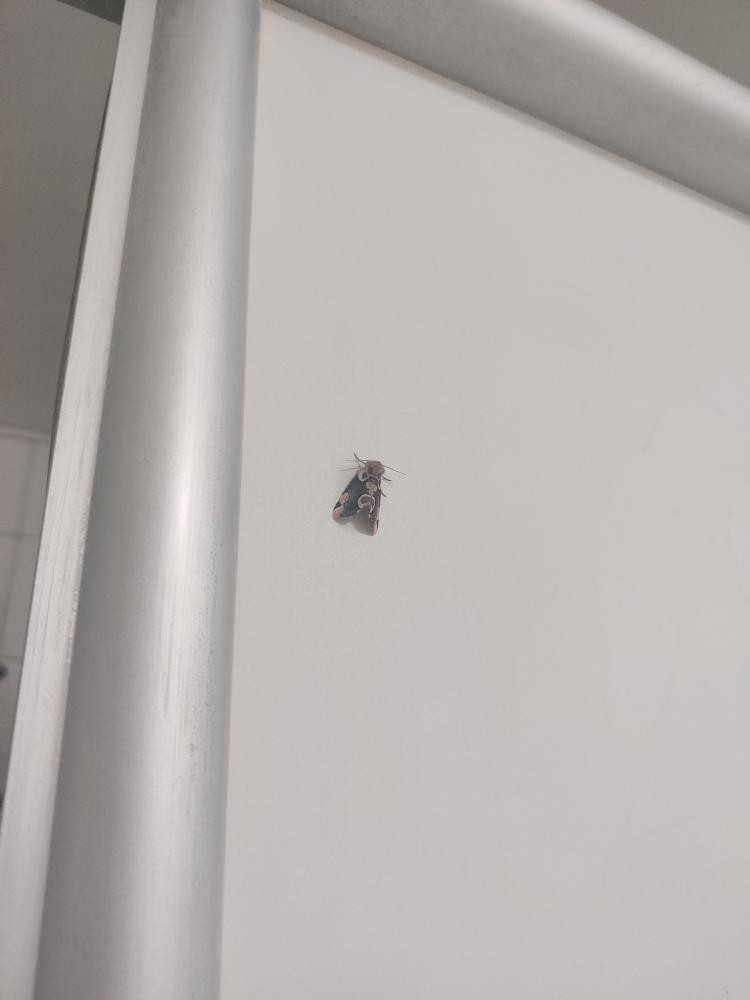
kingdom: Animalia
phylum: Arthropoda
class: Insecta
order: Lepidoptera
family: Drepanidae
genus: Thyatira
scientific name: Thyatira batis
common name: Peach blossom
